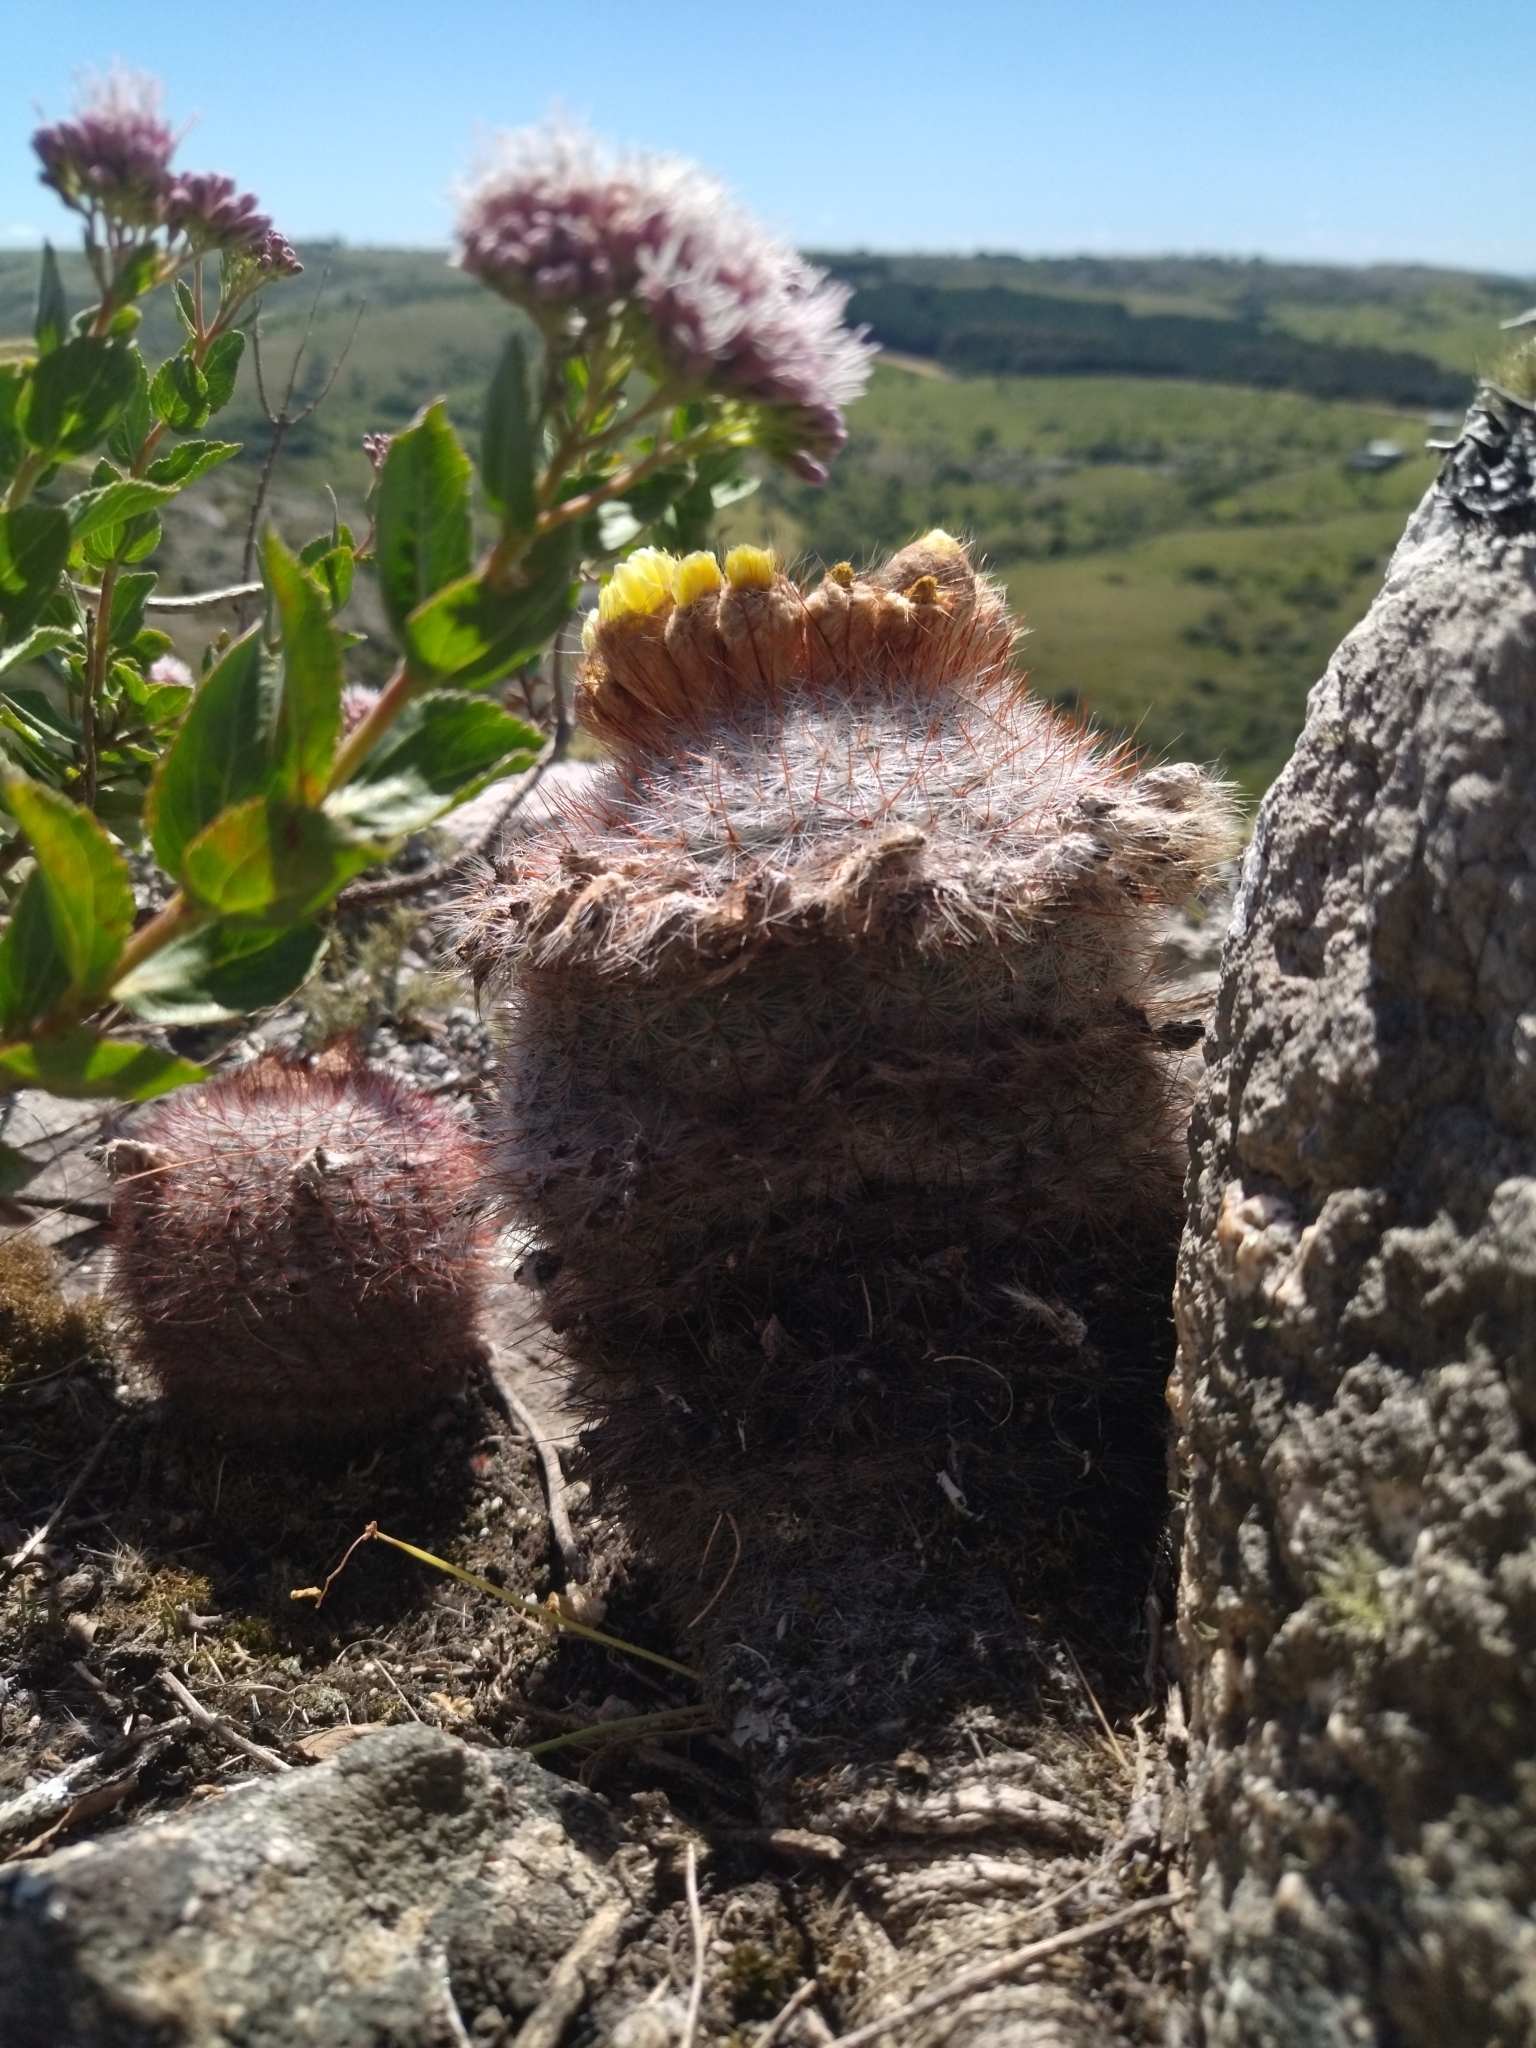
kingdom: Plantae
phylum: Tracheophyta
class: Magnoliopsida
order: Caryophyllales
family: Cactaceae
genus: Parodia
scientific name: Parodia scopa
